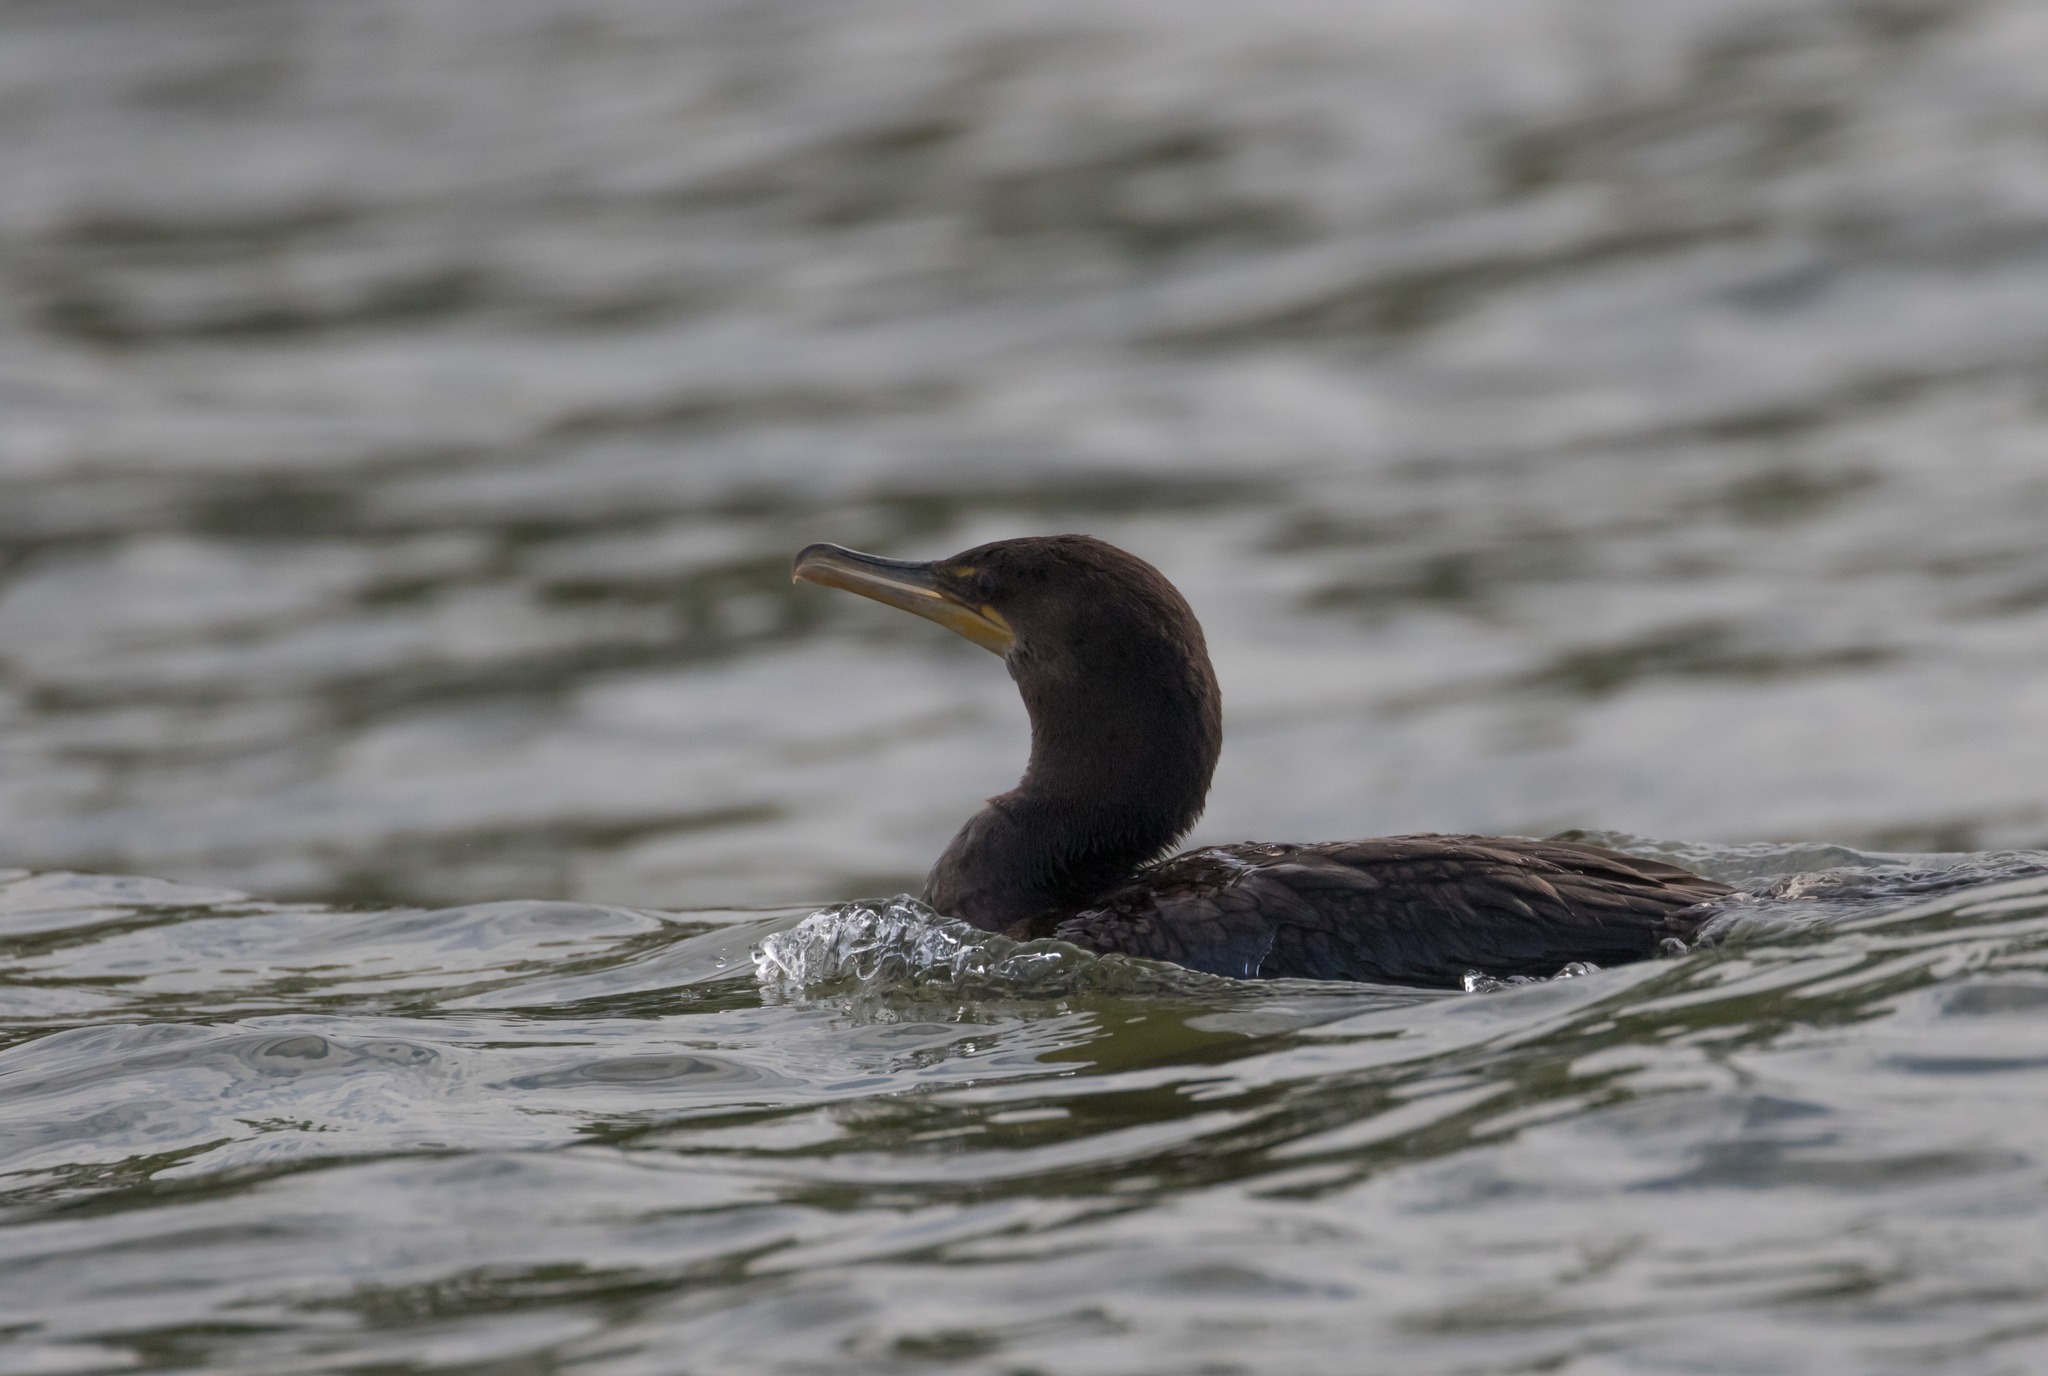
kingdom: Animalia
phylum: Chordata
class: Aves
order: Suliformes
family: Phalacrocoracidae
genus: Phalacrocorax
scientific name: Phalacrocorax auritus
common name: Double-crested cormorant
